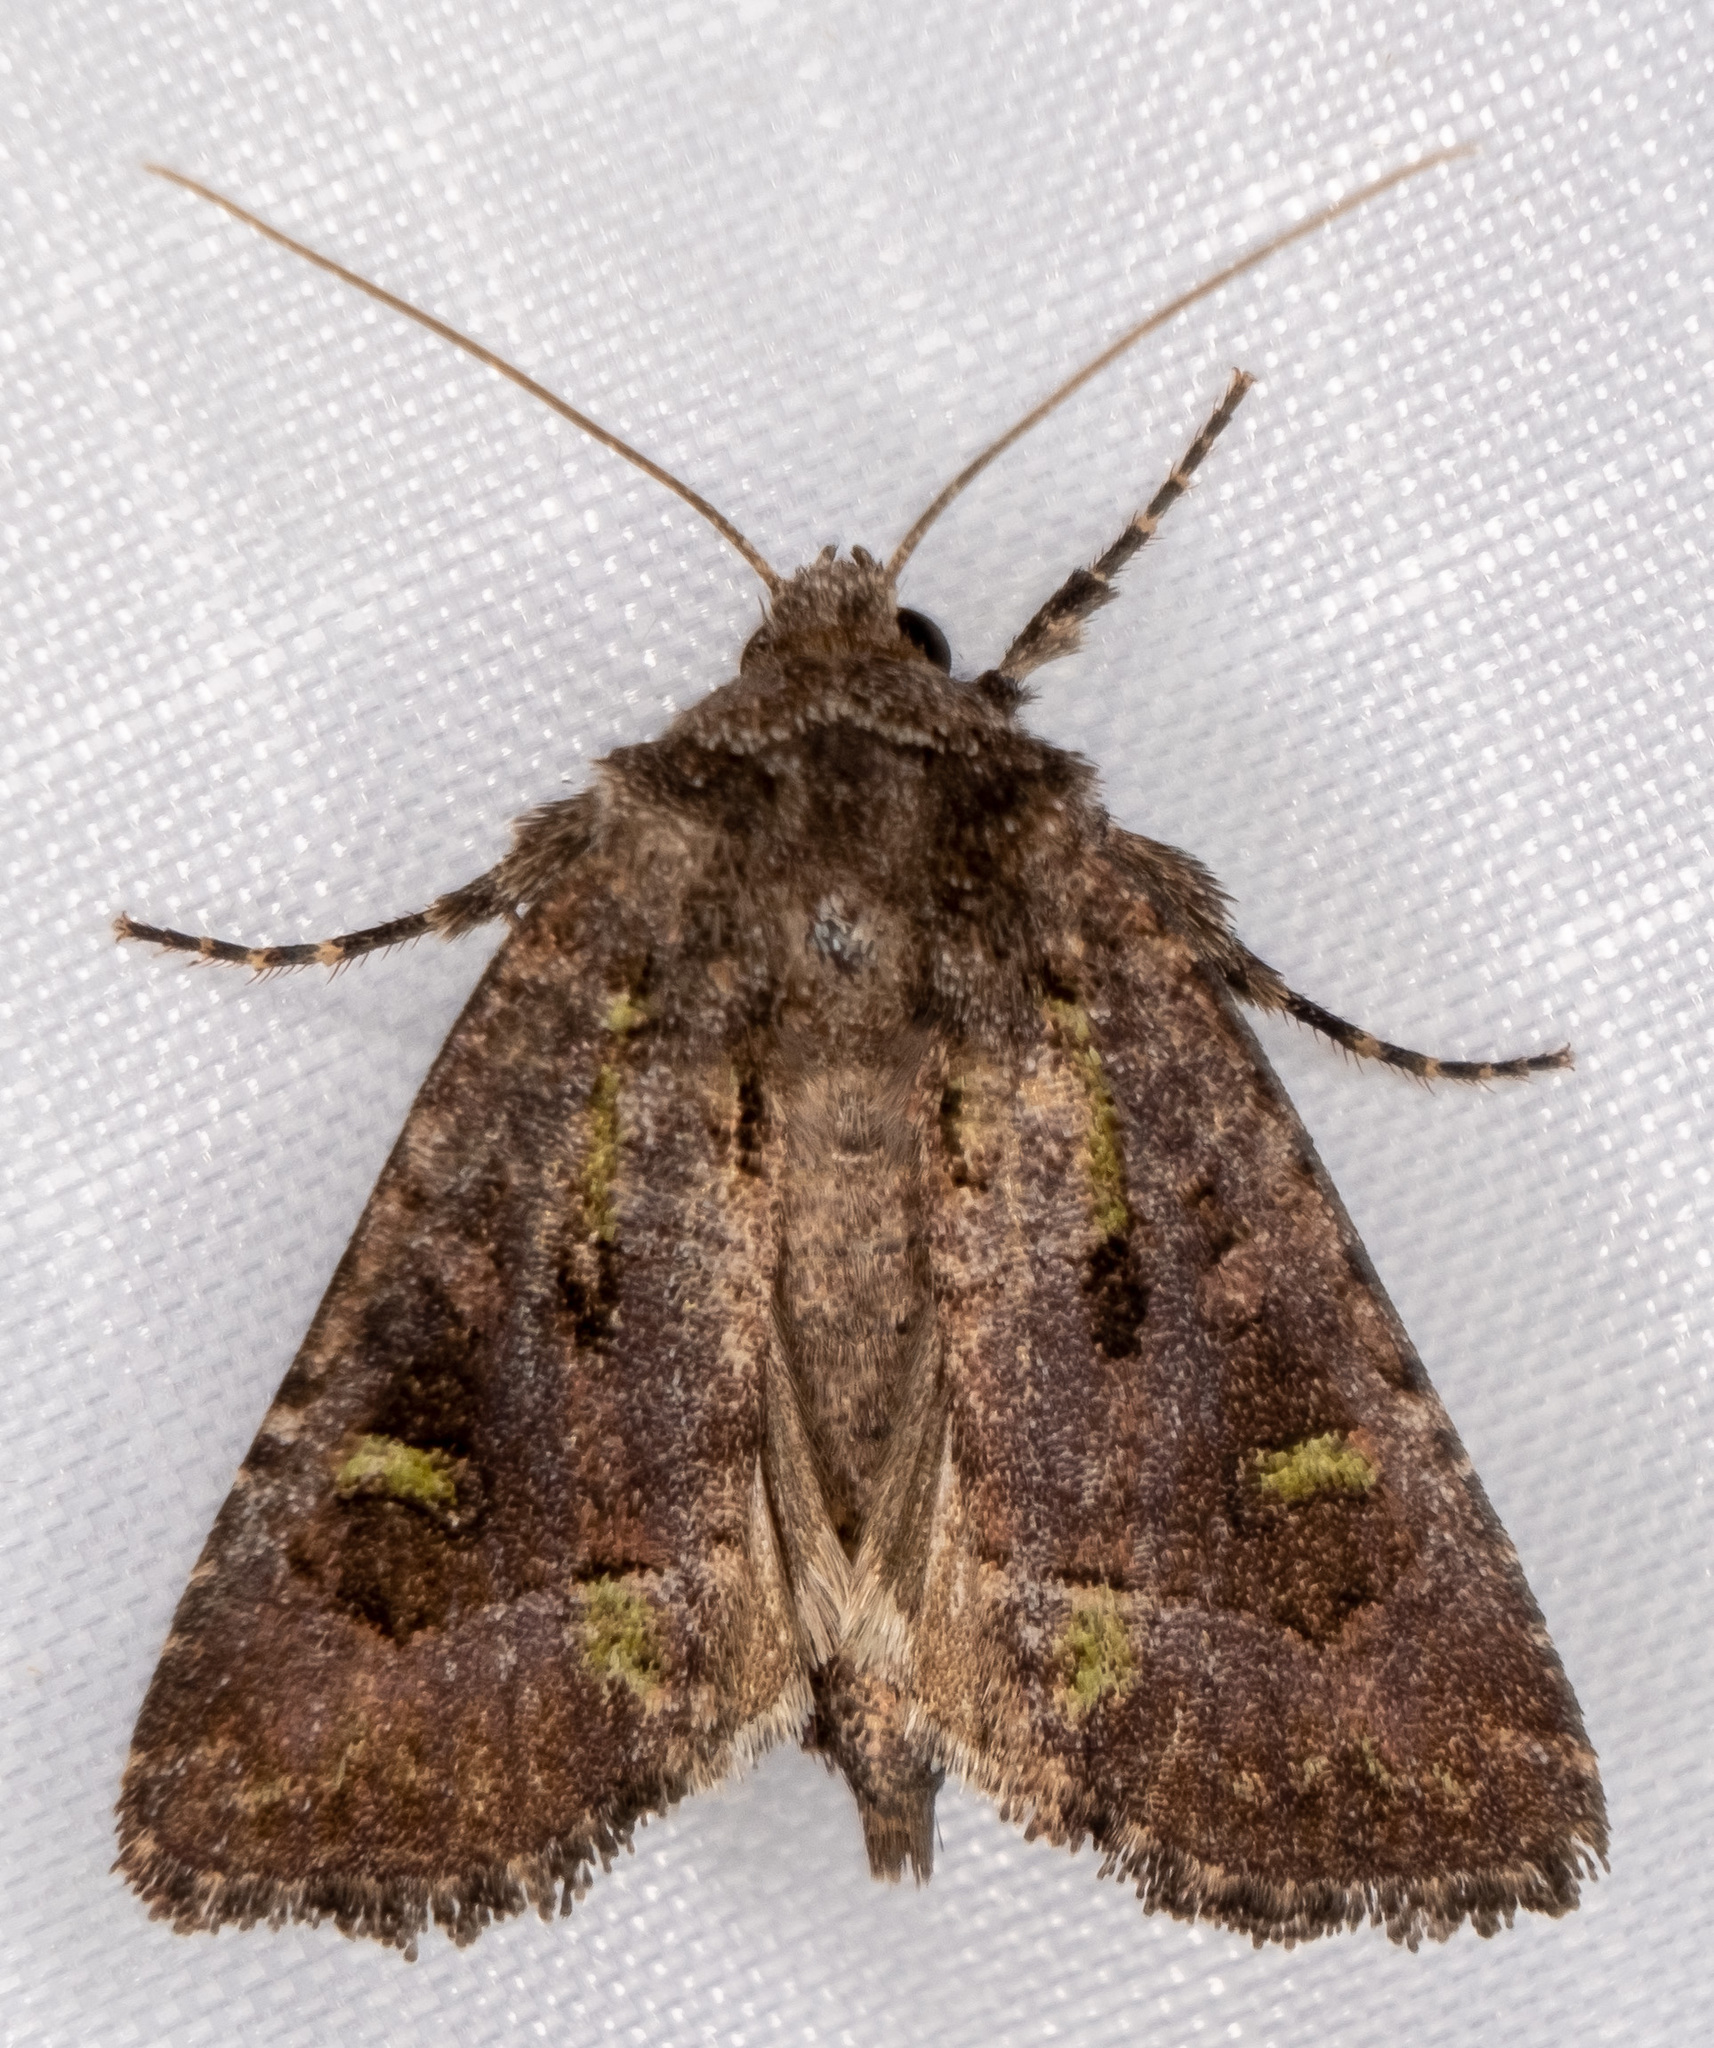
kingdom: Animalia
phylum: Arthropoda
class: Insecta
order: Lepidoptera
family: Noctuidae
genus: Lacinipolia
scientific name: Lacinipolia renigera
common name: Kidney-spotted minor
